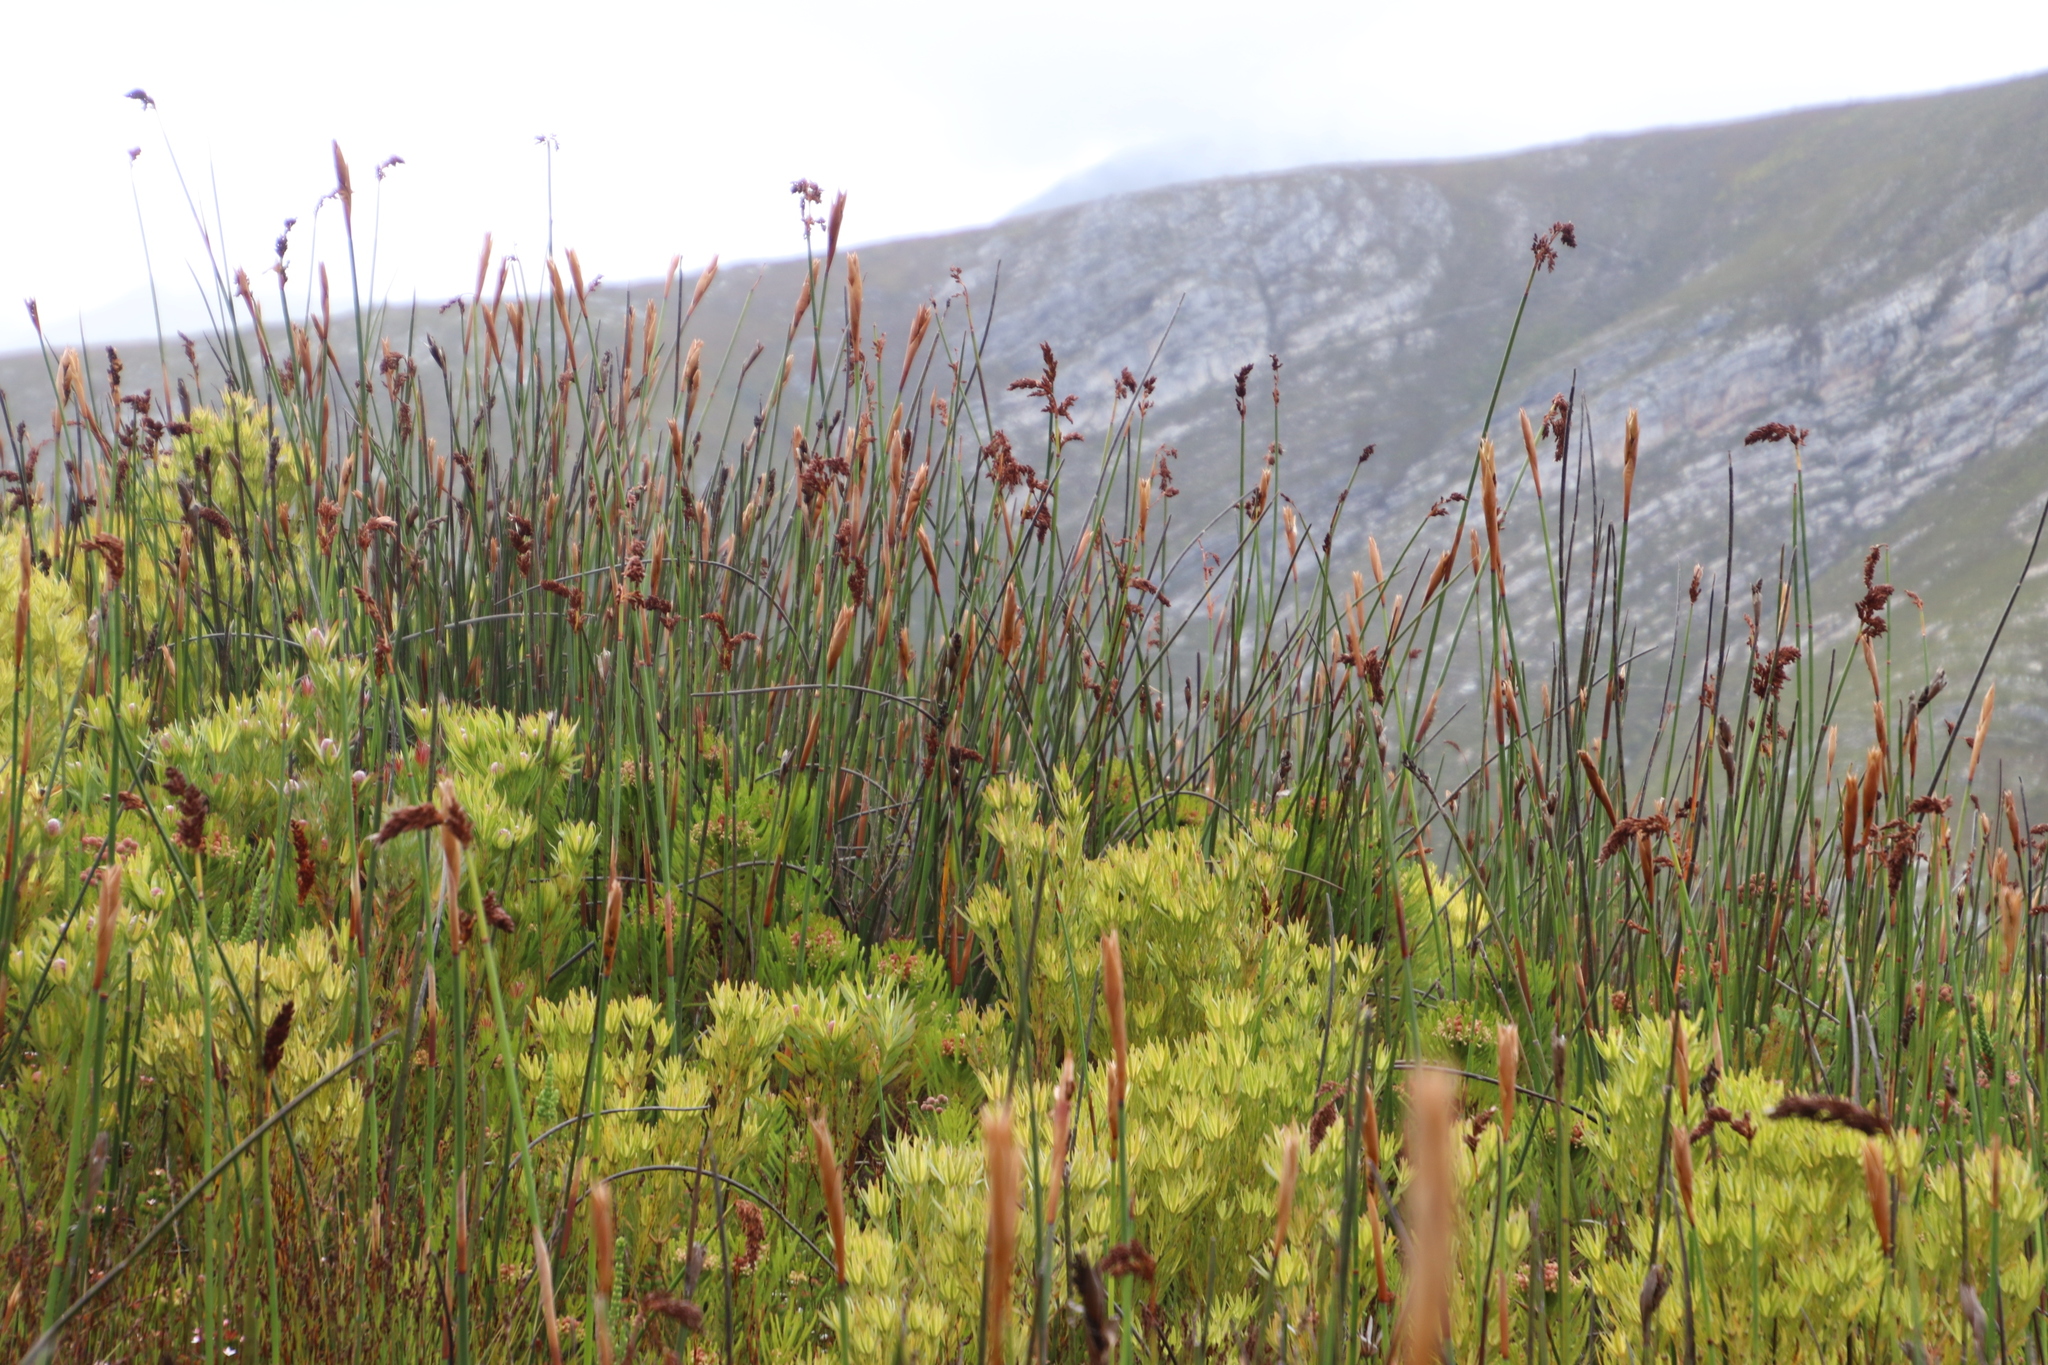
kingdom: Plantae
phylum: Tracheophyta
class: Liliopsida
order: Poales
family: Restionaceae
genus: Elegia
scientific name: Elegia mucronata
